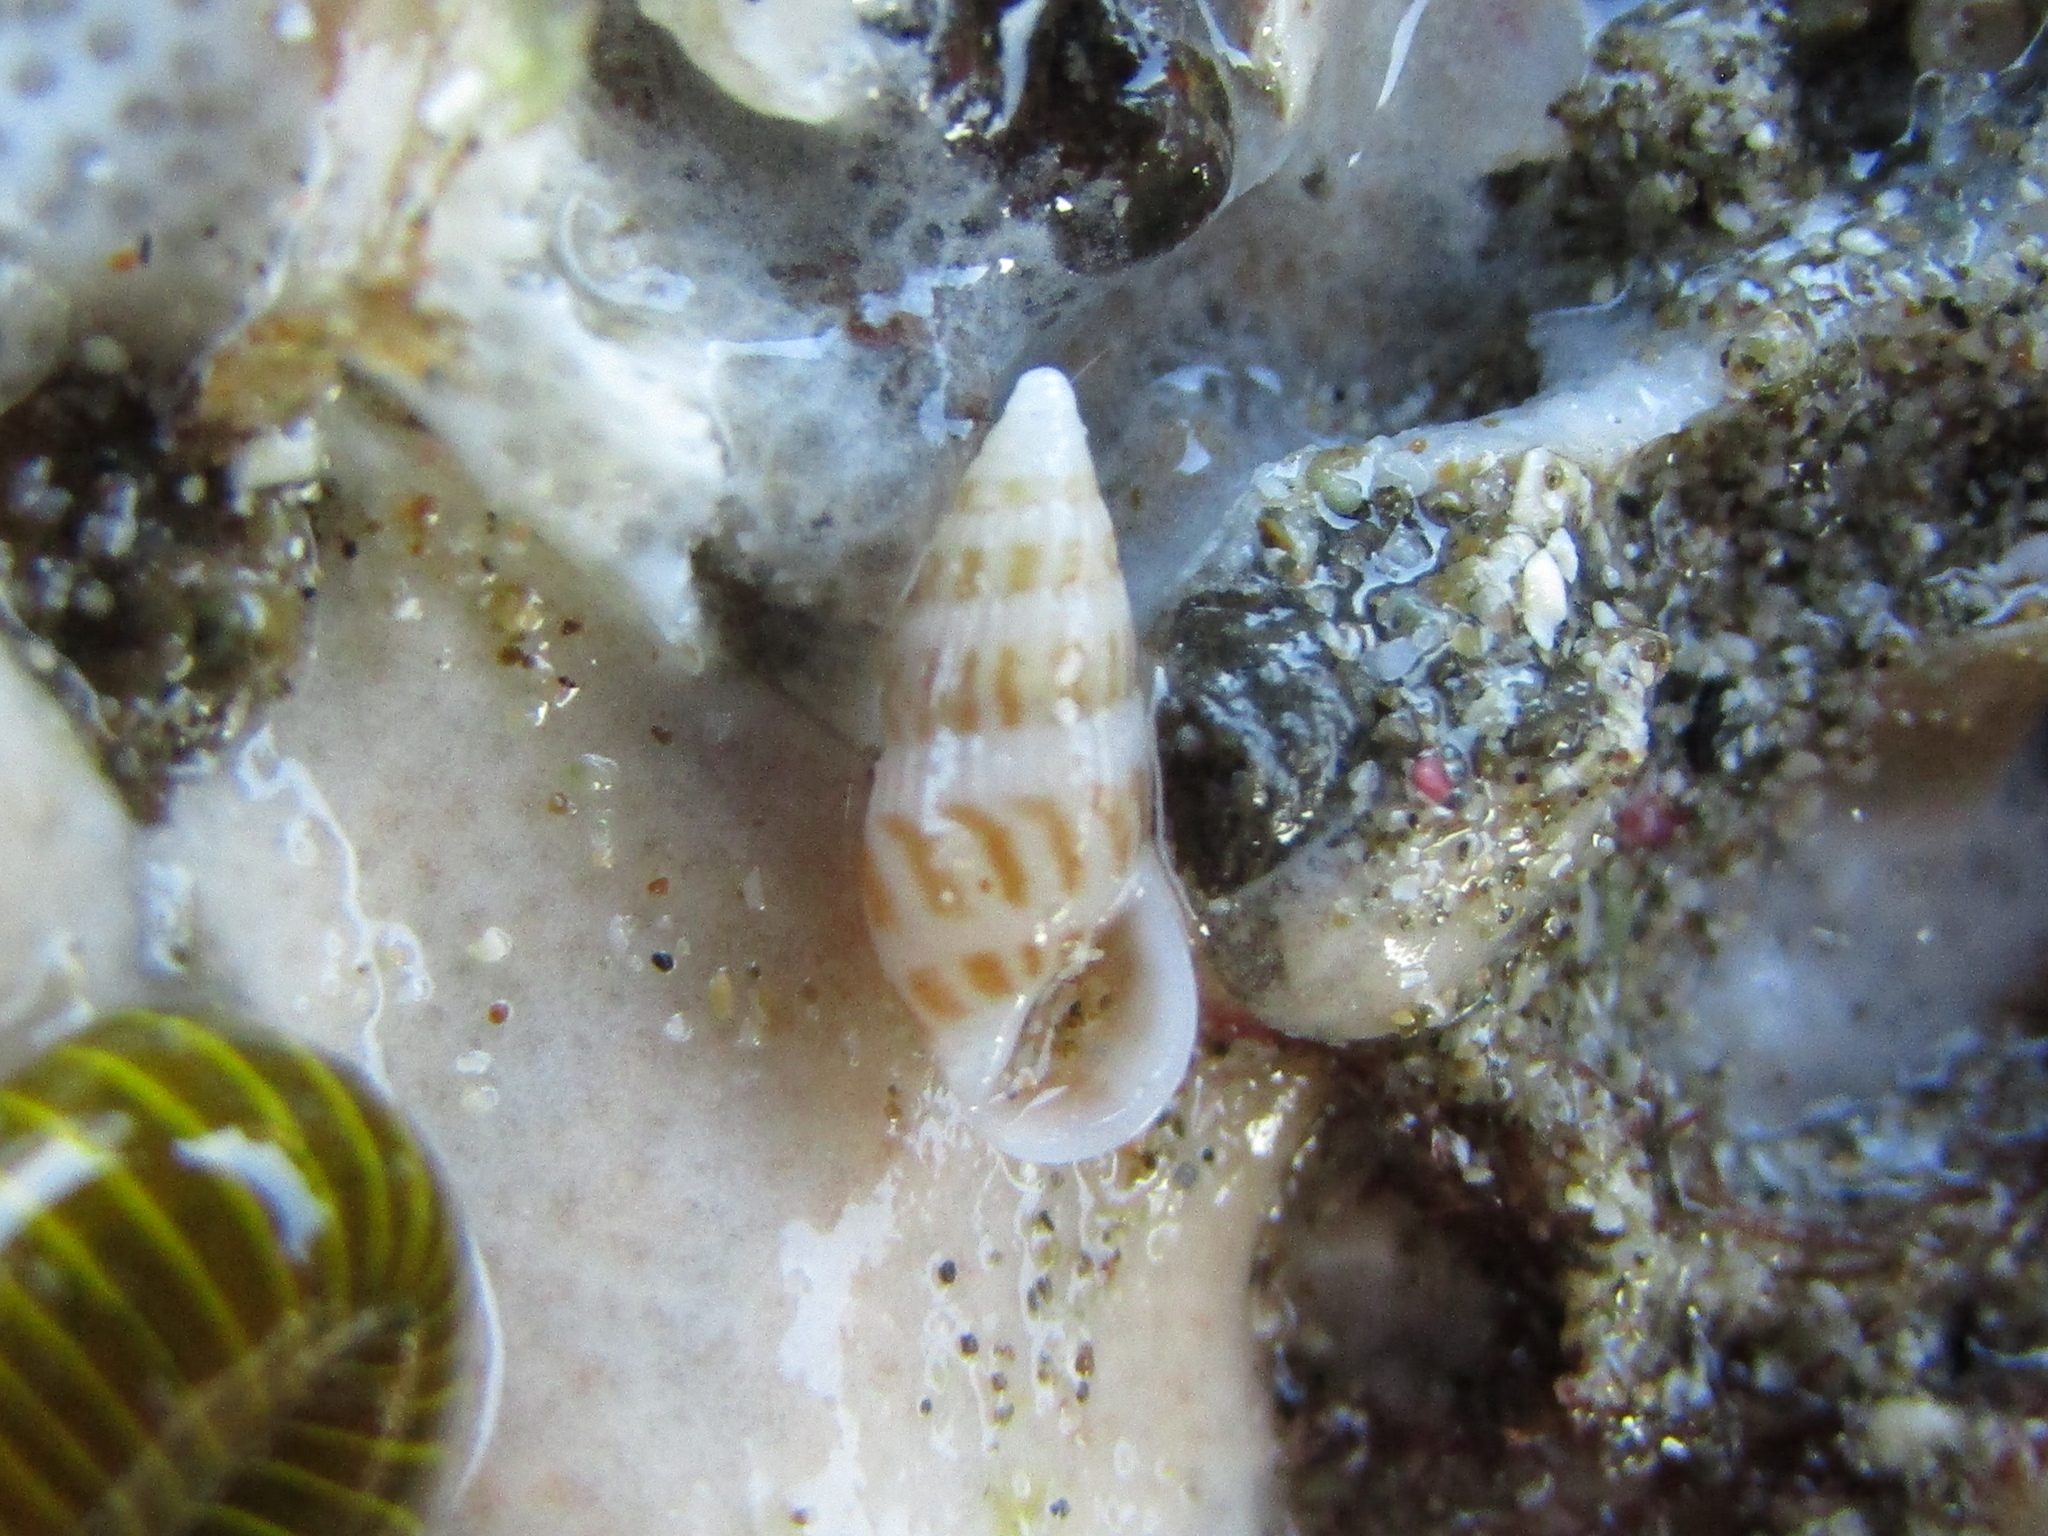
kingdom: Animalia
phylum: Mollusca
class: Gastropoda
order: Littorinimorpha
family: Rissoinidae
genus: Rissoina
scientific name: Rissoina achatina
